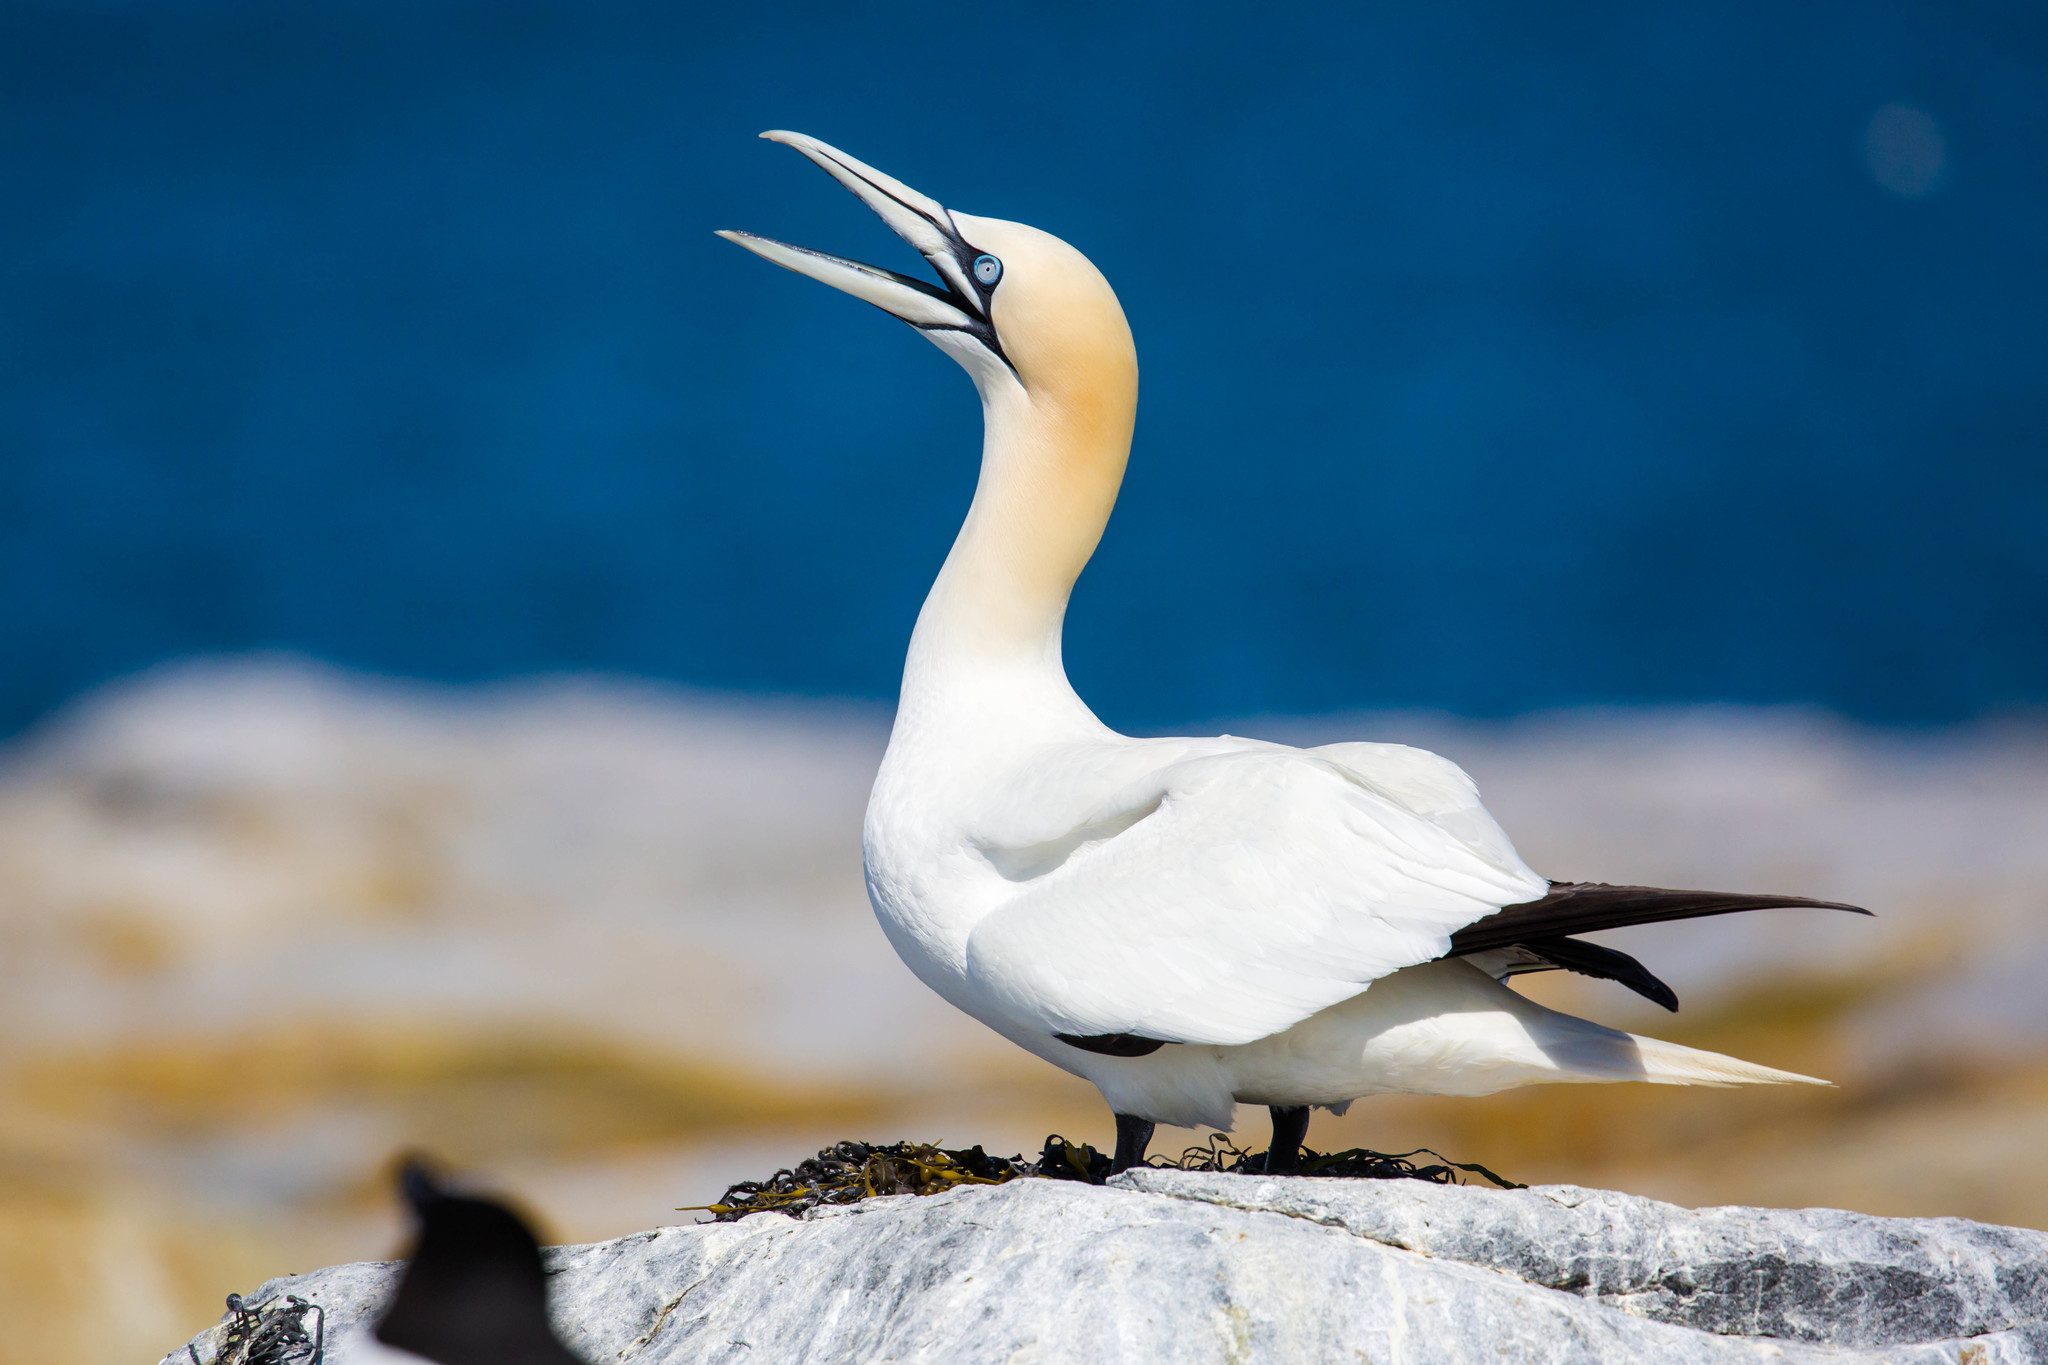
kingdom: Animalia
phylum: Chordata
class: Aves
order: Suliformes
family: Sulidae
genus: Morus
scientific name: Morus bassanus
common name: Northern gannet
